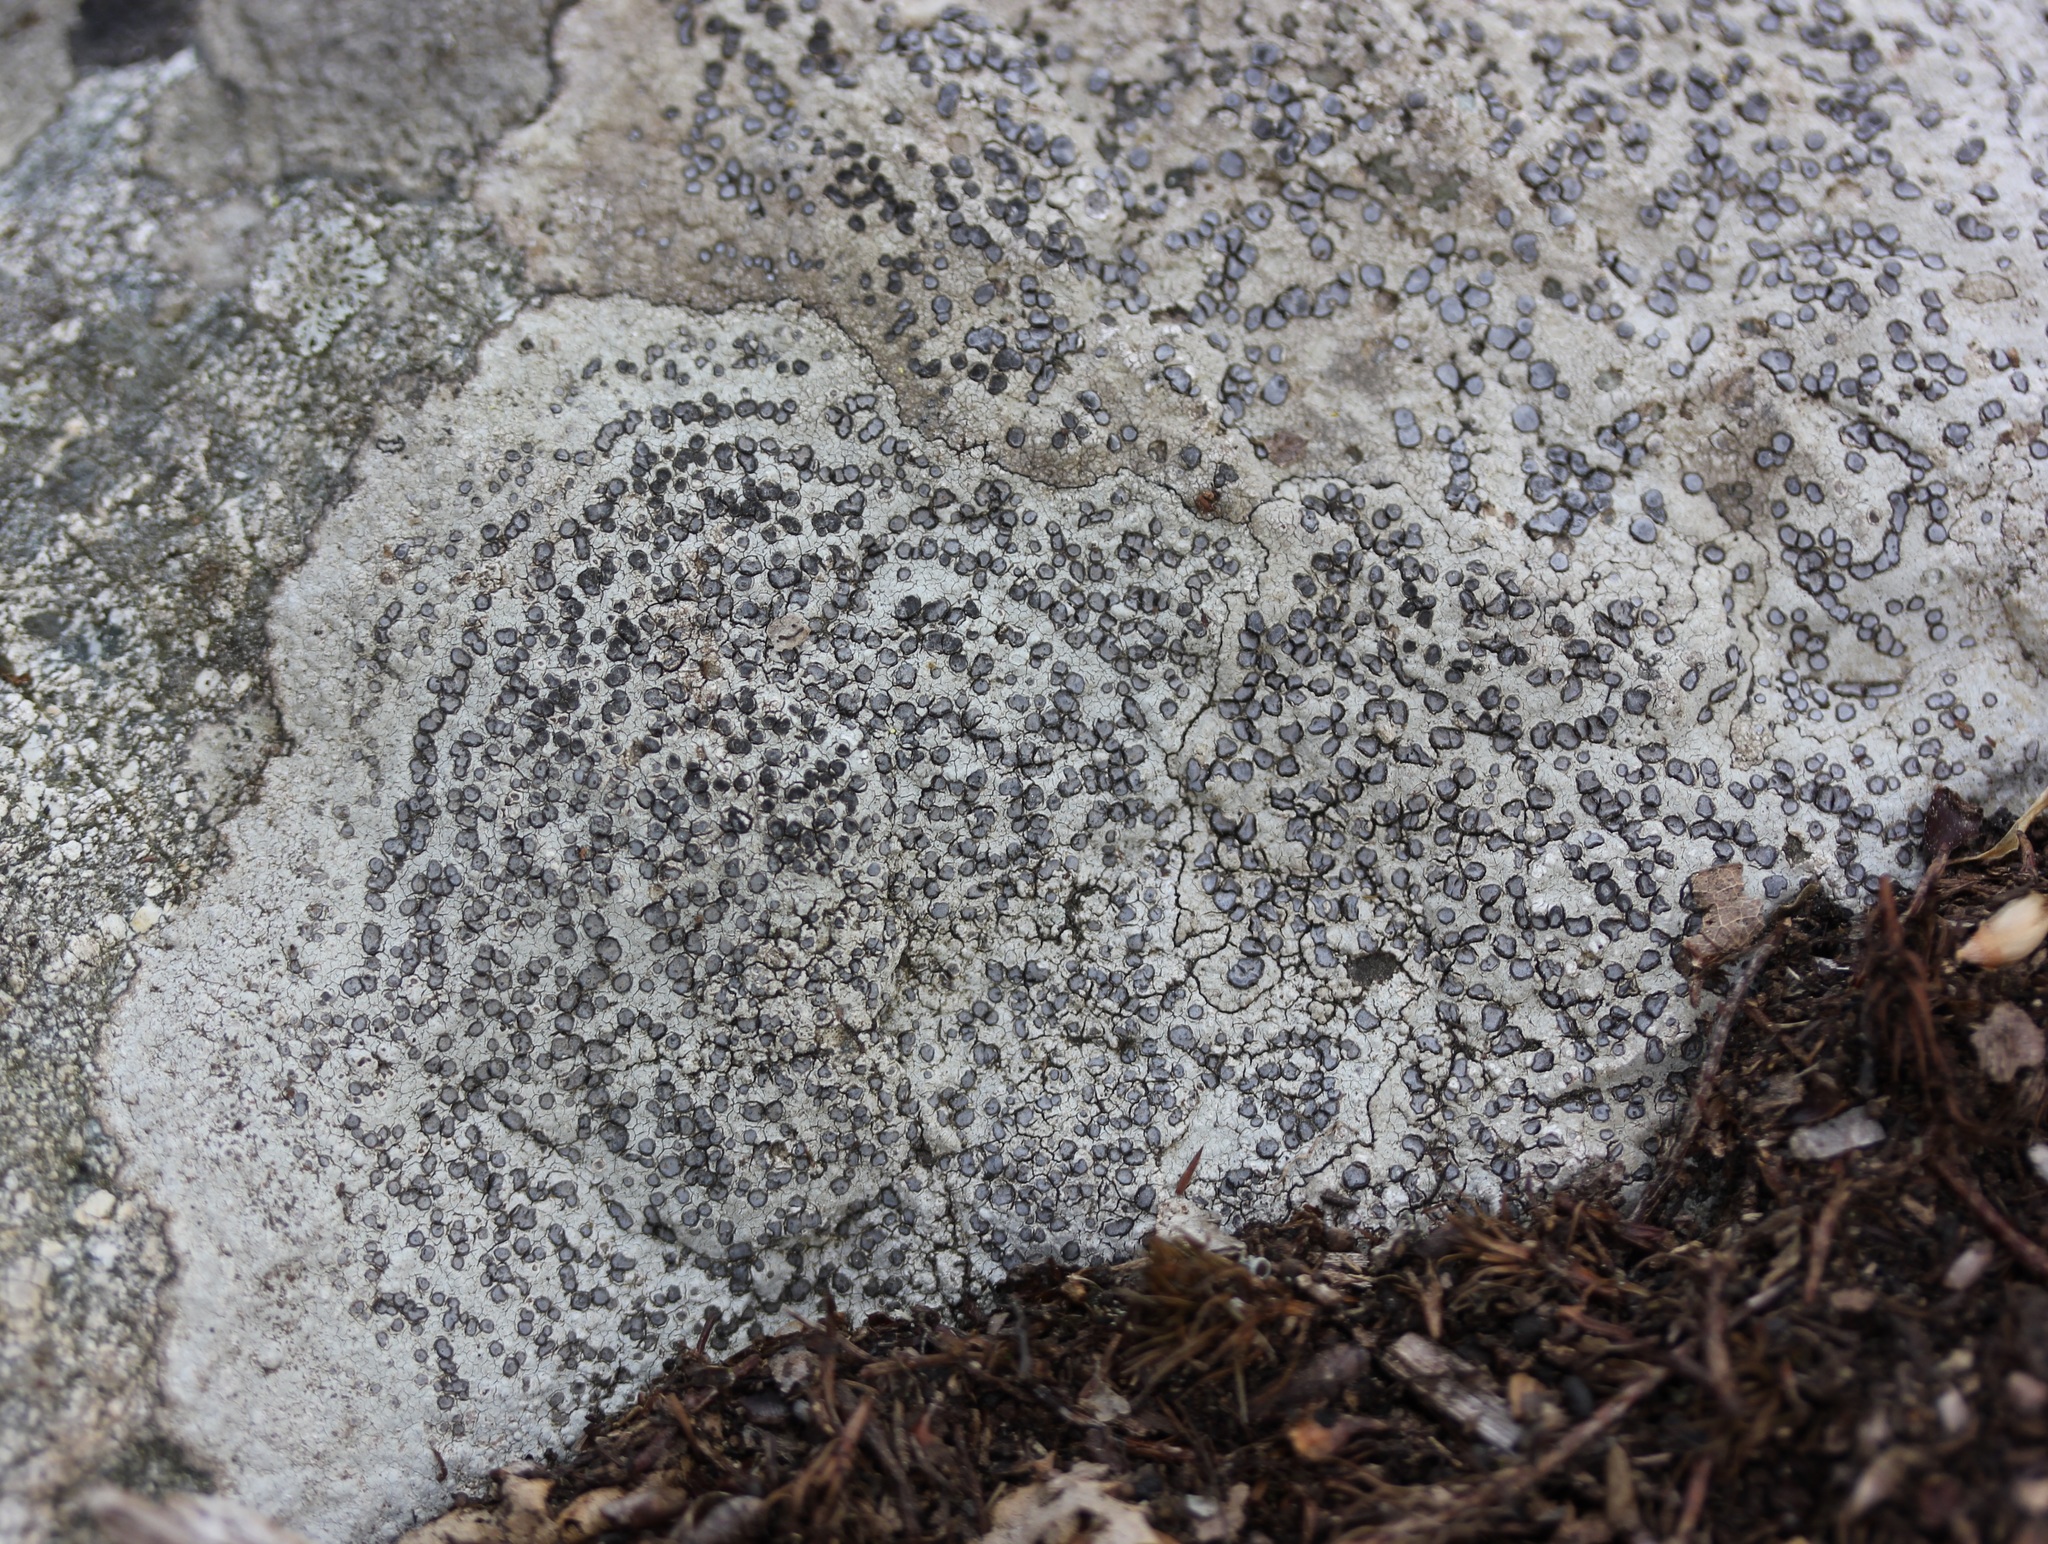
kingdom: Fungi
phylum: Ascomycota
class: Lecanoromycetes
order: Lecideales
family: Lecideaceae
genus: Porpidia
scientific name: Porpidia albocaerulescens
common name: Smokey-eyed boulder lichen
